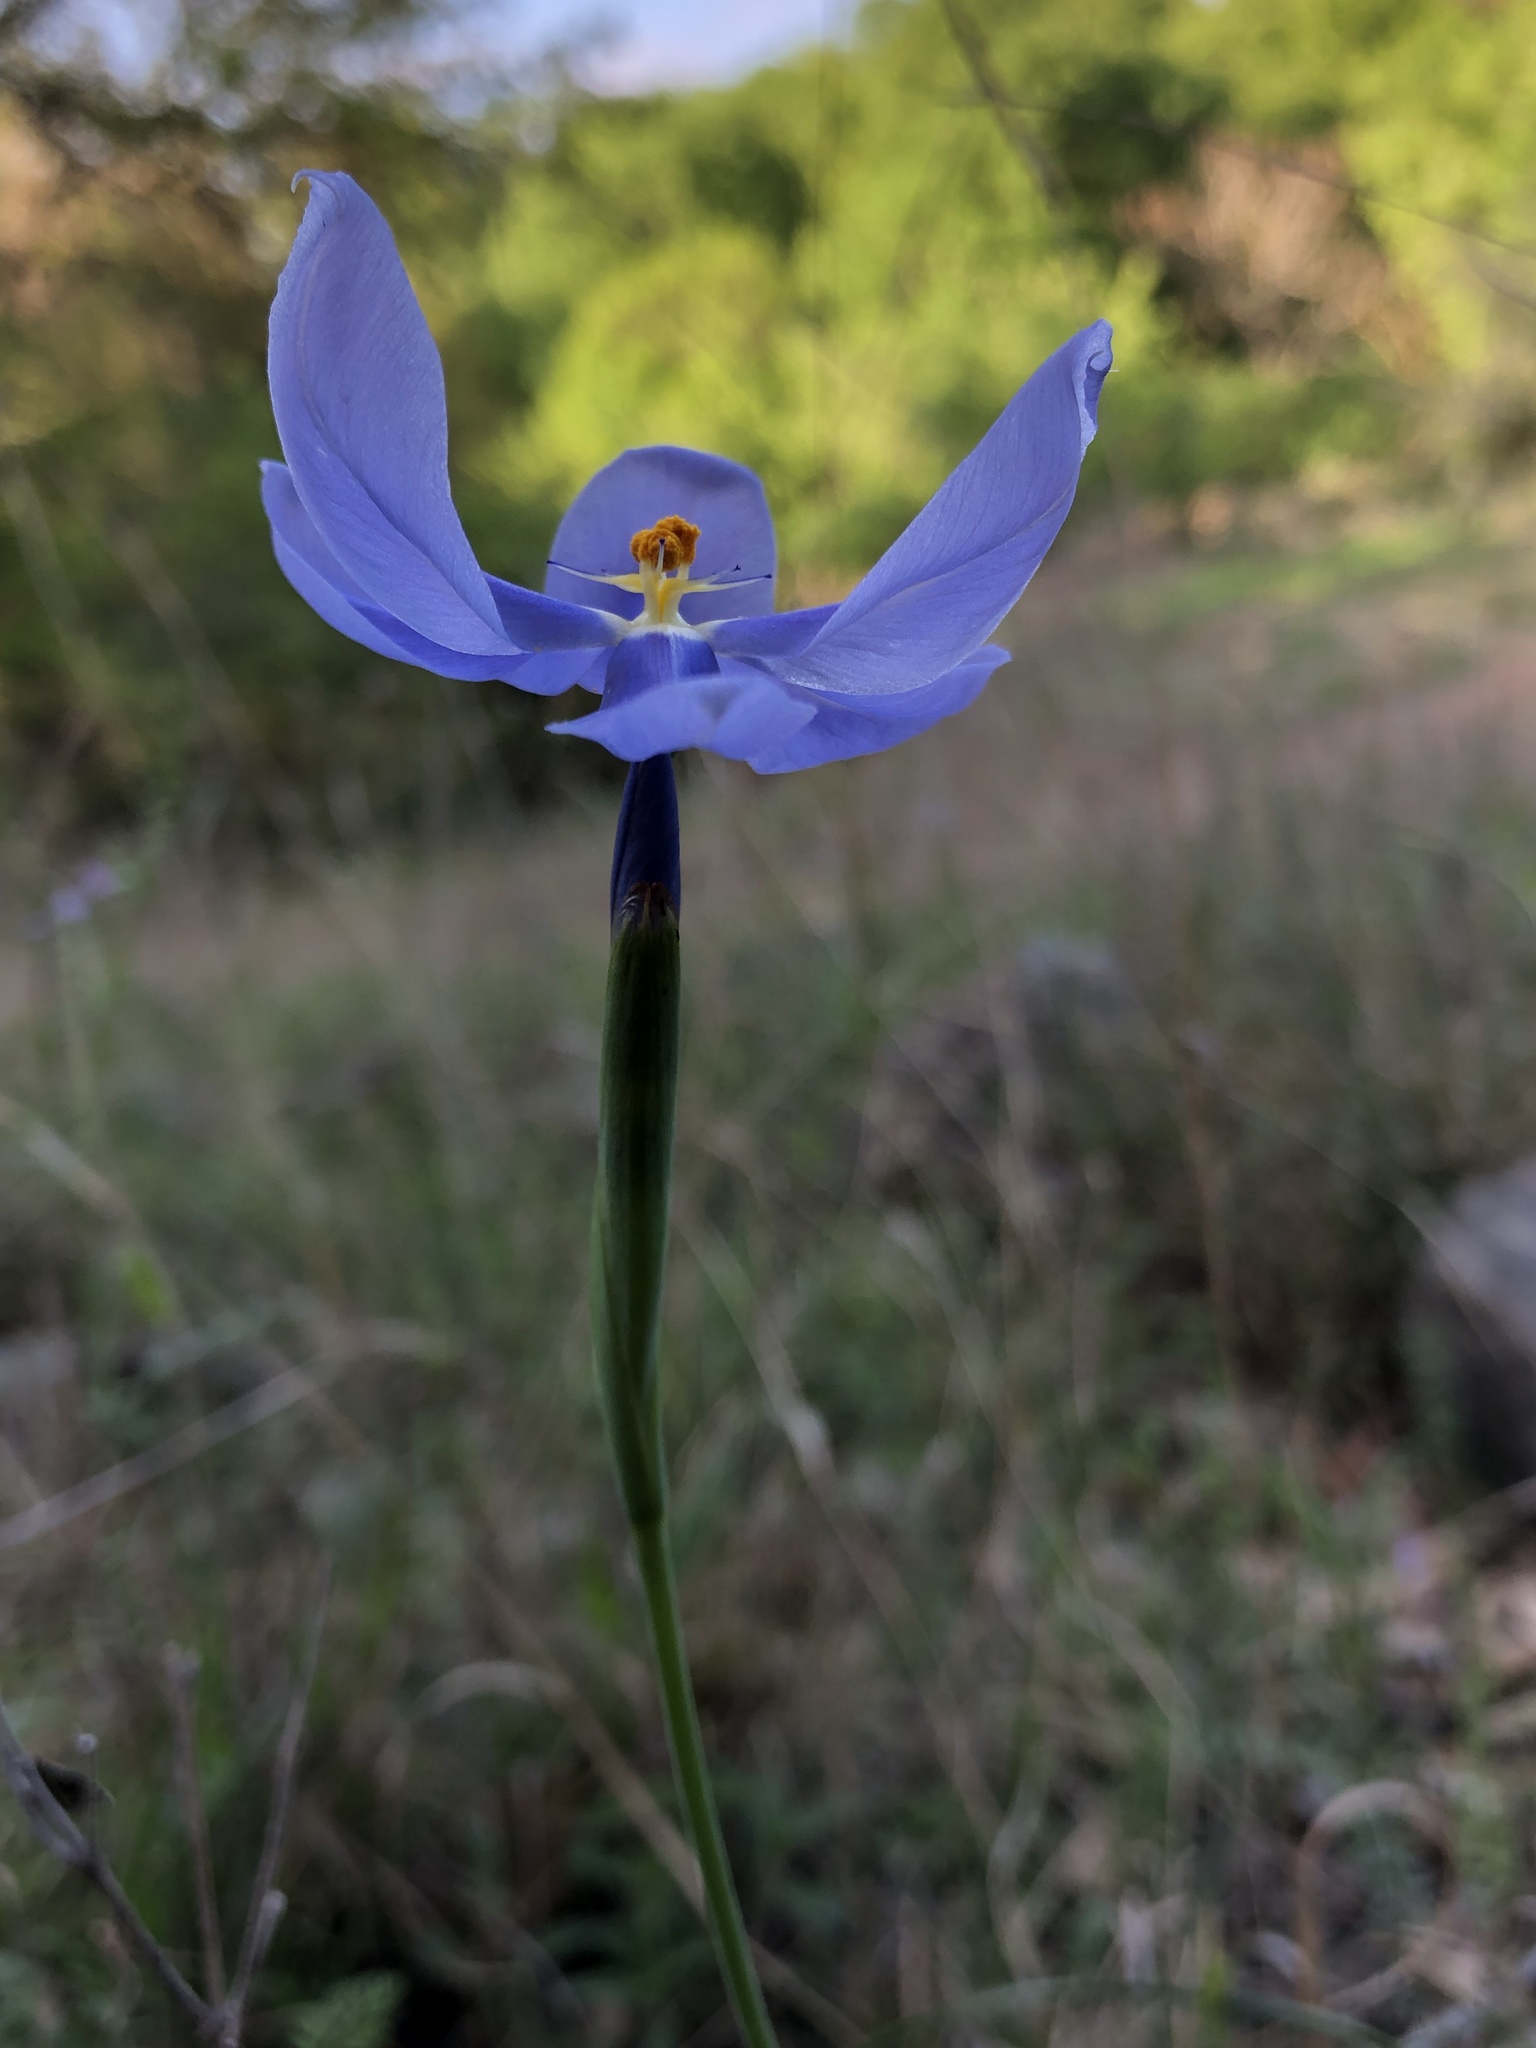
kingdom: Plantae
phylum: Tracheophyta
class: Liliopsida
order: Asparagales
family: Iridaceae
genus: Nemastylis
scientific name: Nemastylis geminiflora
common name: Prairie celestial
